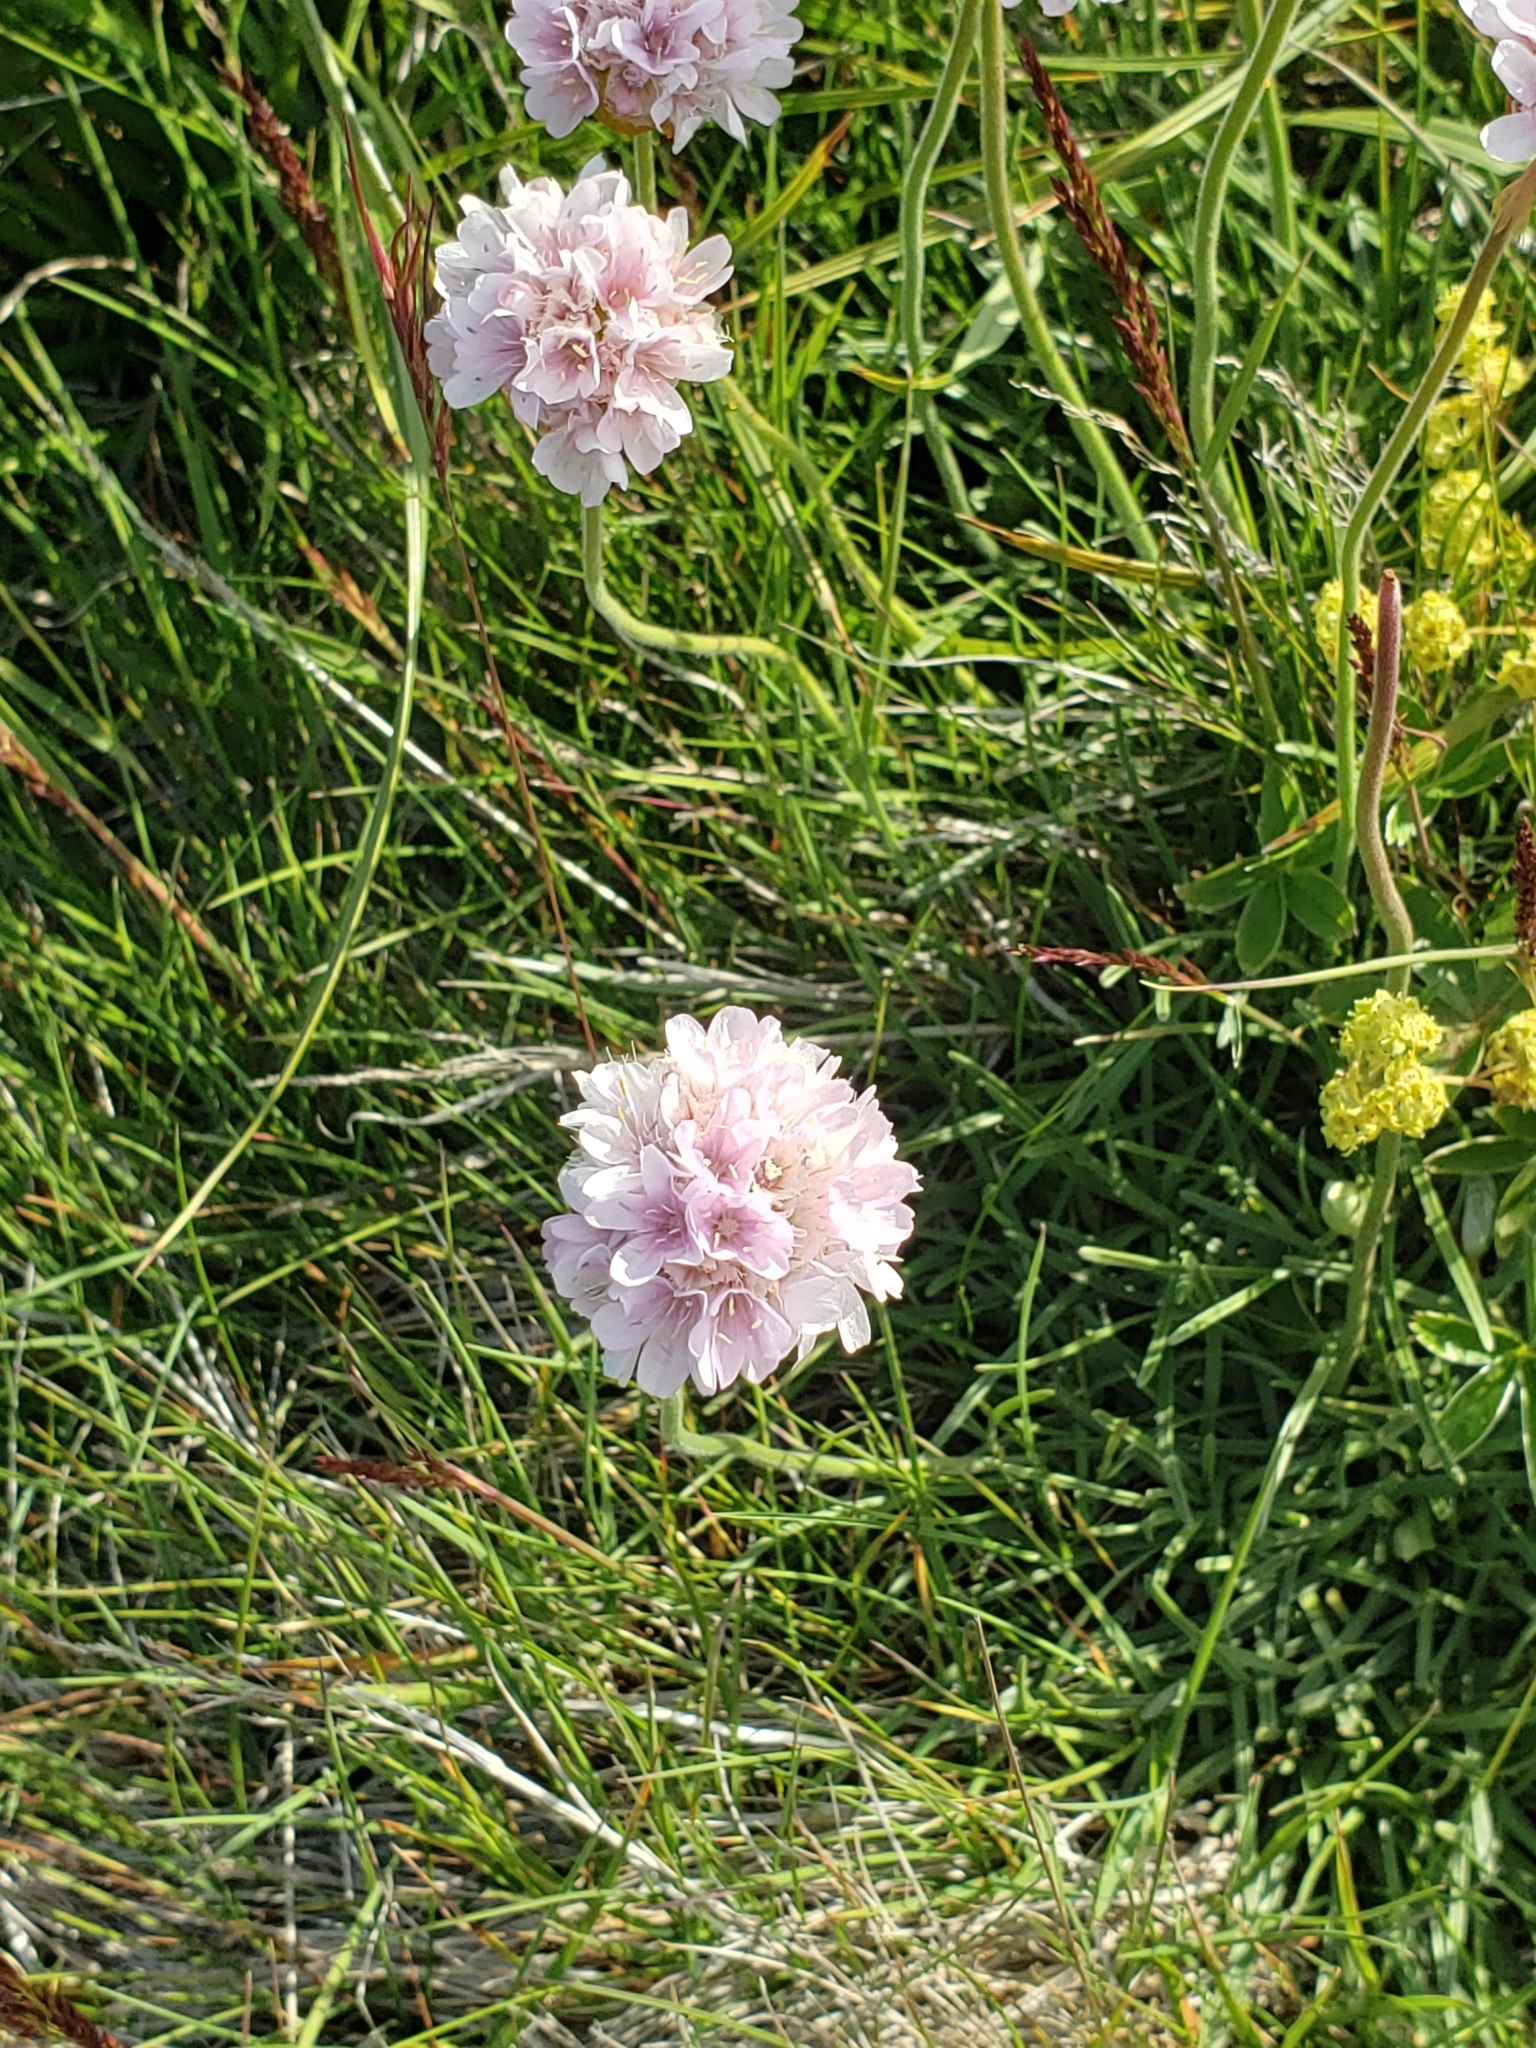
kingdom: Plantae
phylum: Tracheophyta
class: Magnoliopsida
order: Caryophyllales
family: Plumbaginaceae
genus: Armeria
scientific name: Armeria maritima
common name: Thrift
